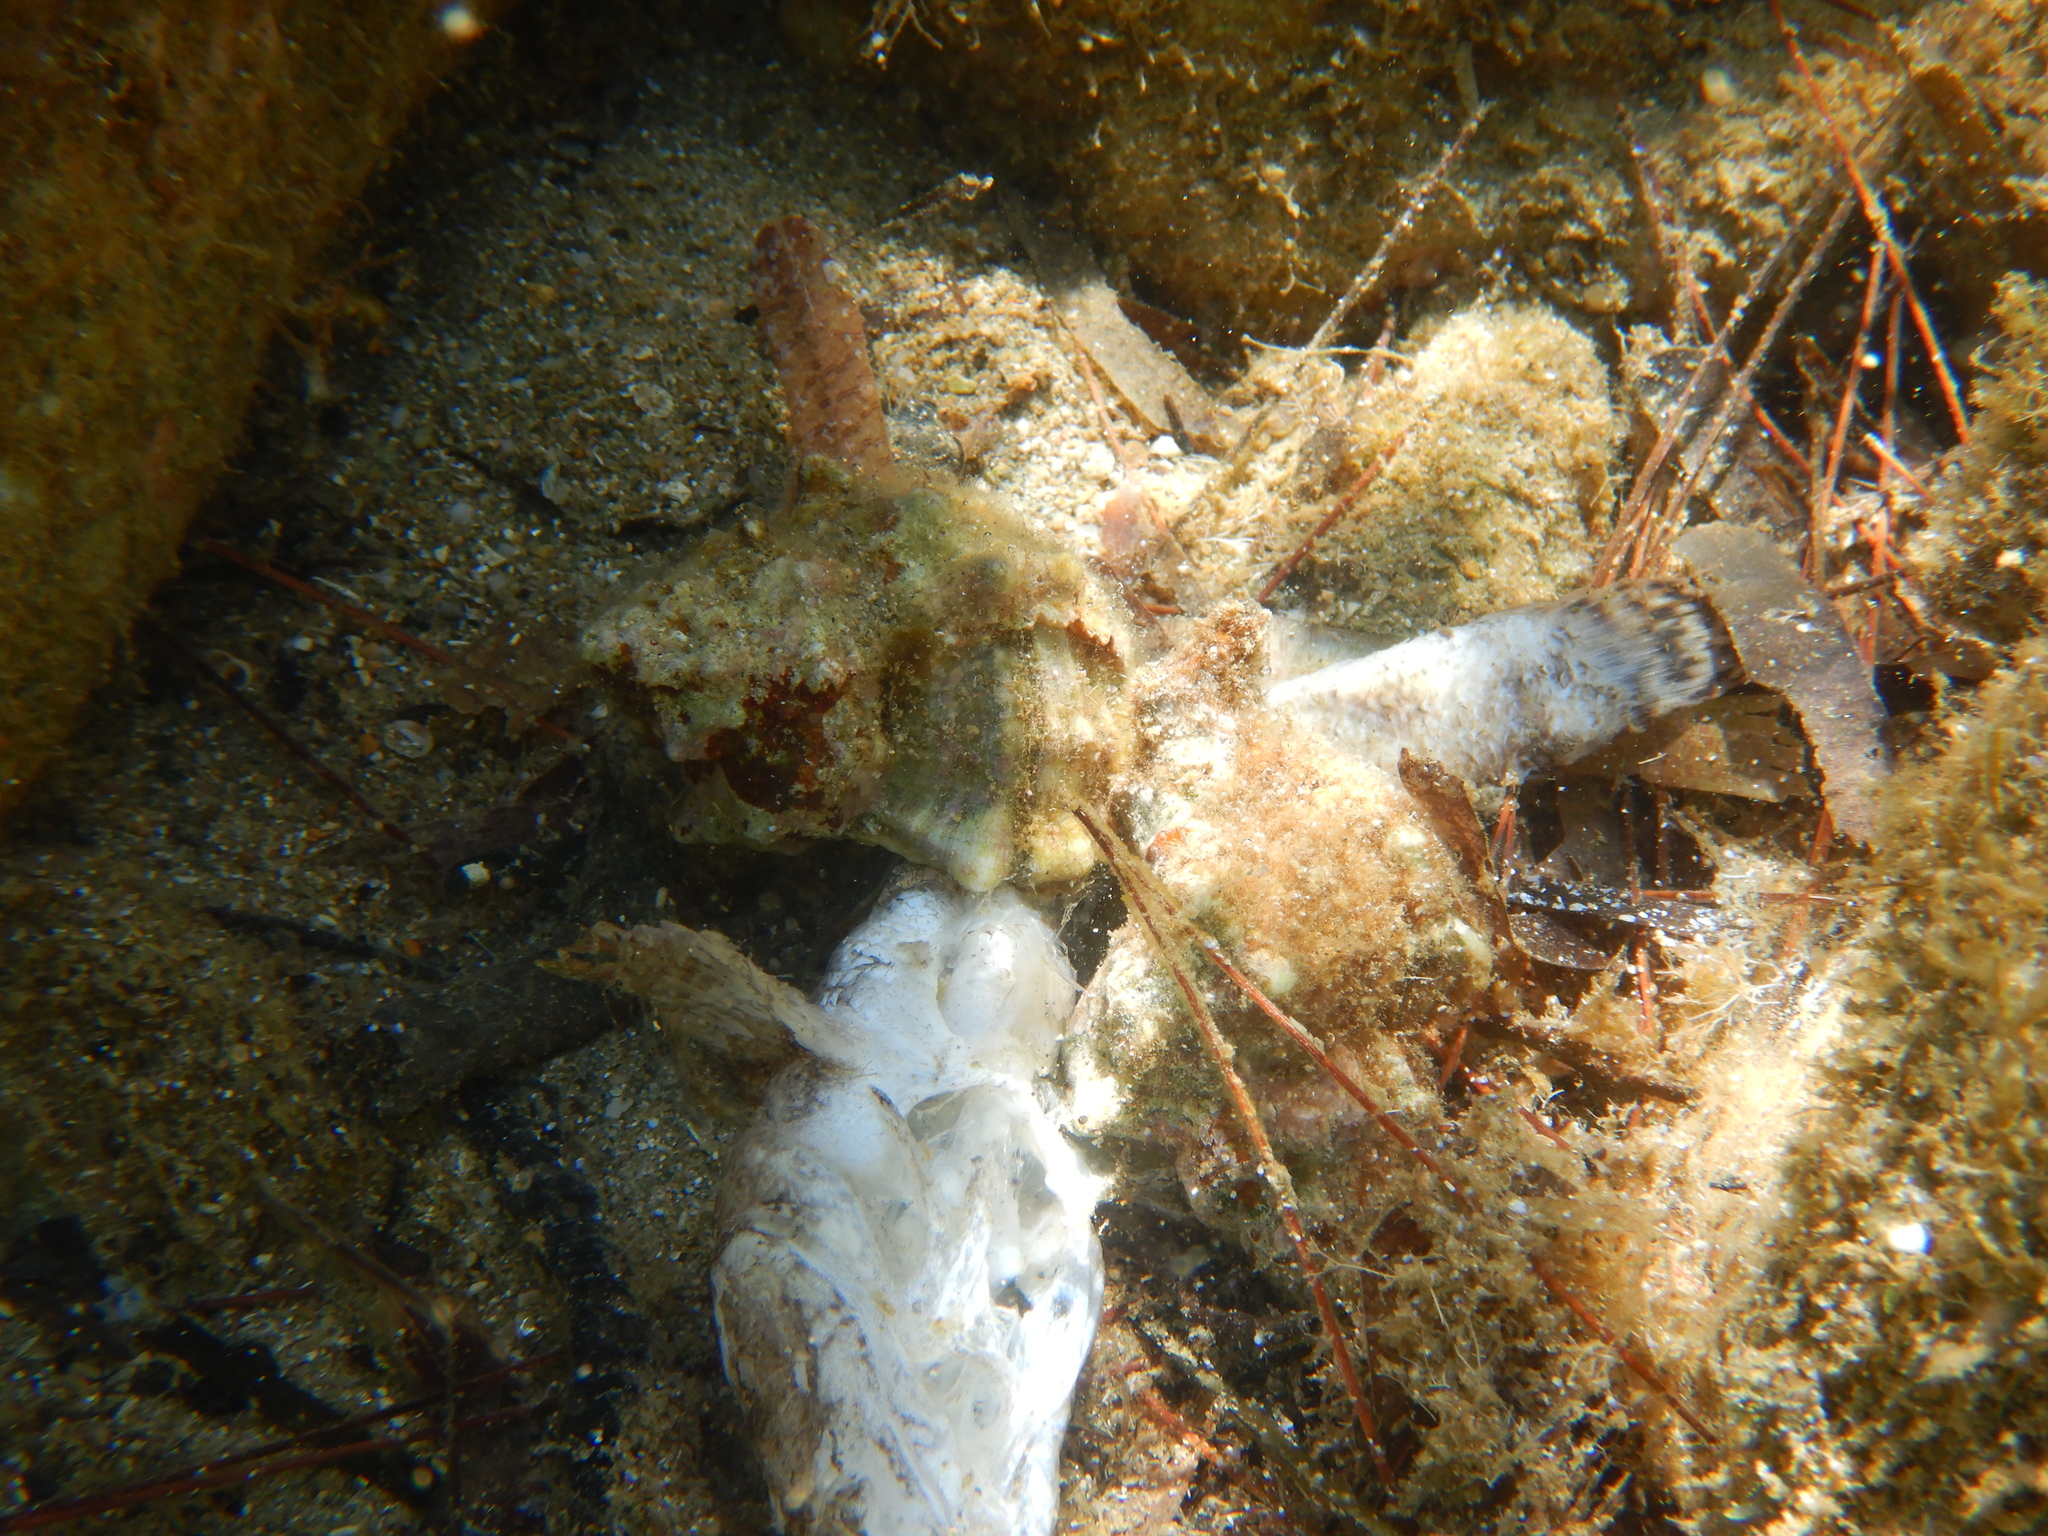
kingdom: Animalia
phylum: Mollusca
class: Gastropoda
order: Neogastropoda
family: Muricidae
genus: Hexaplex
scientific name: Hexaplex trunculus
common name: Banded dye-murex
